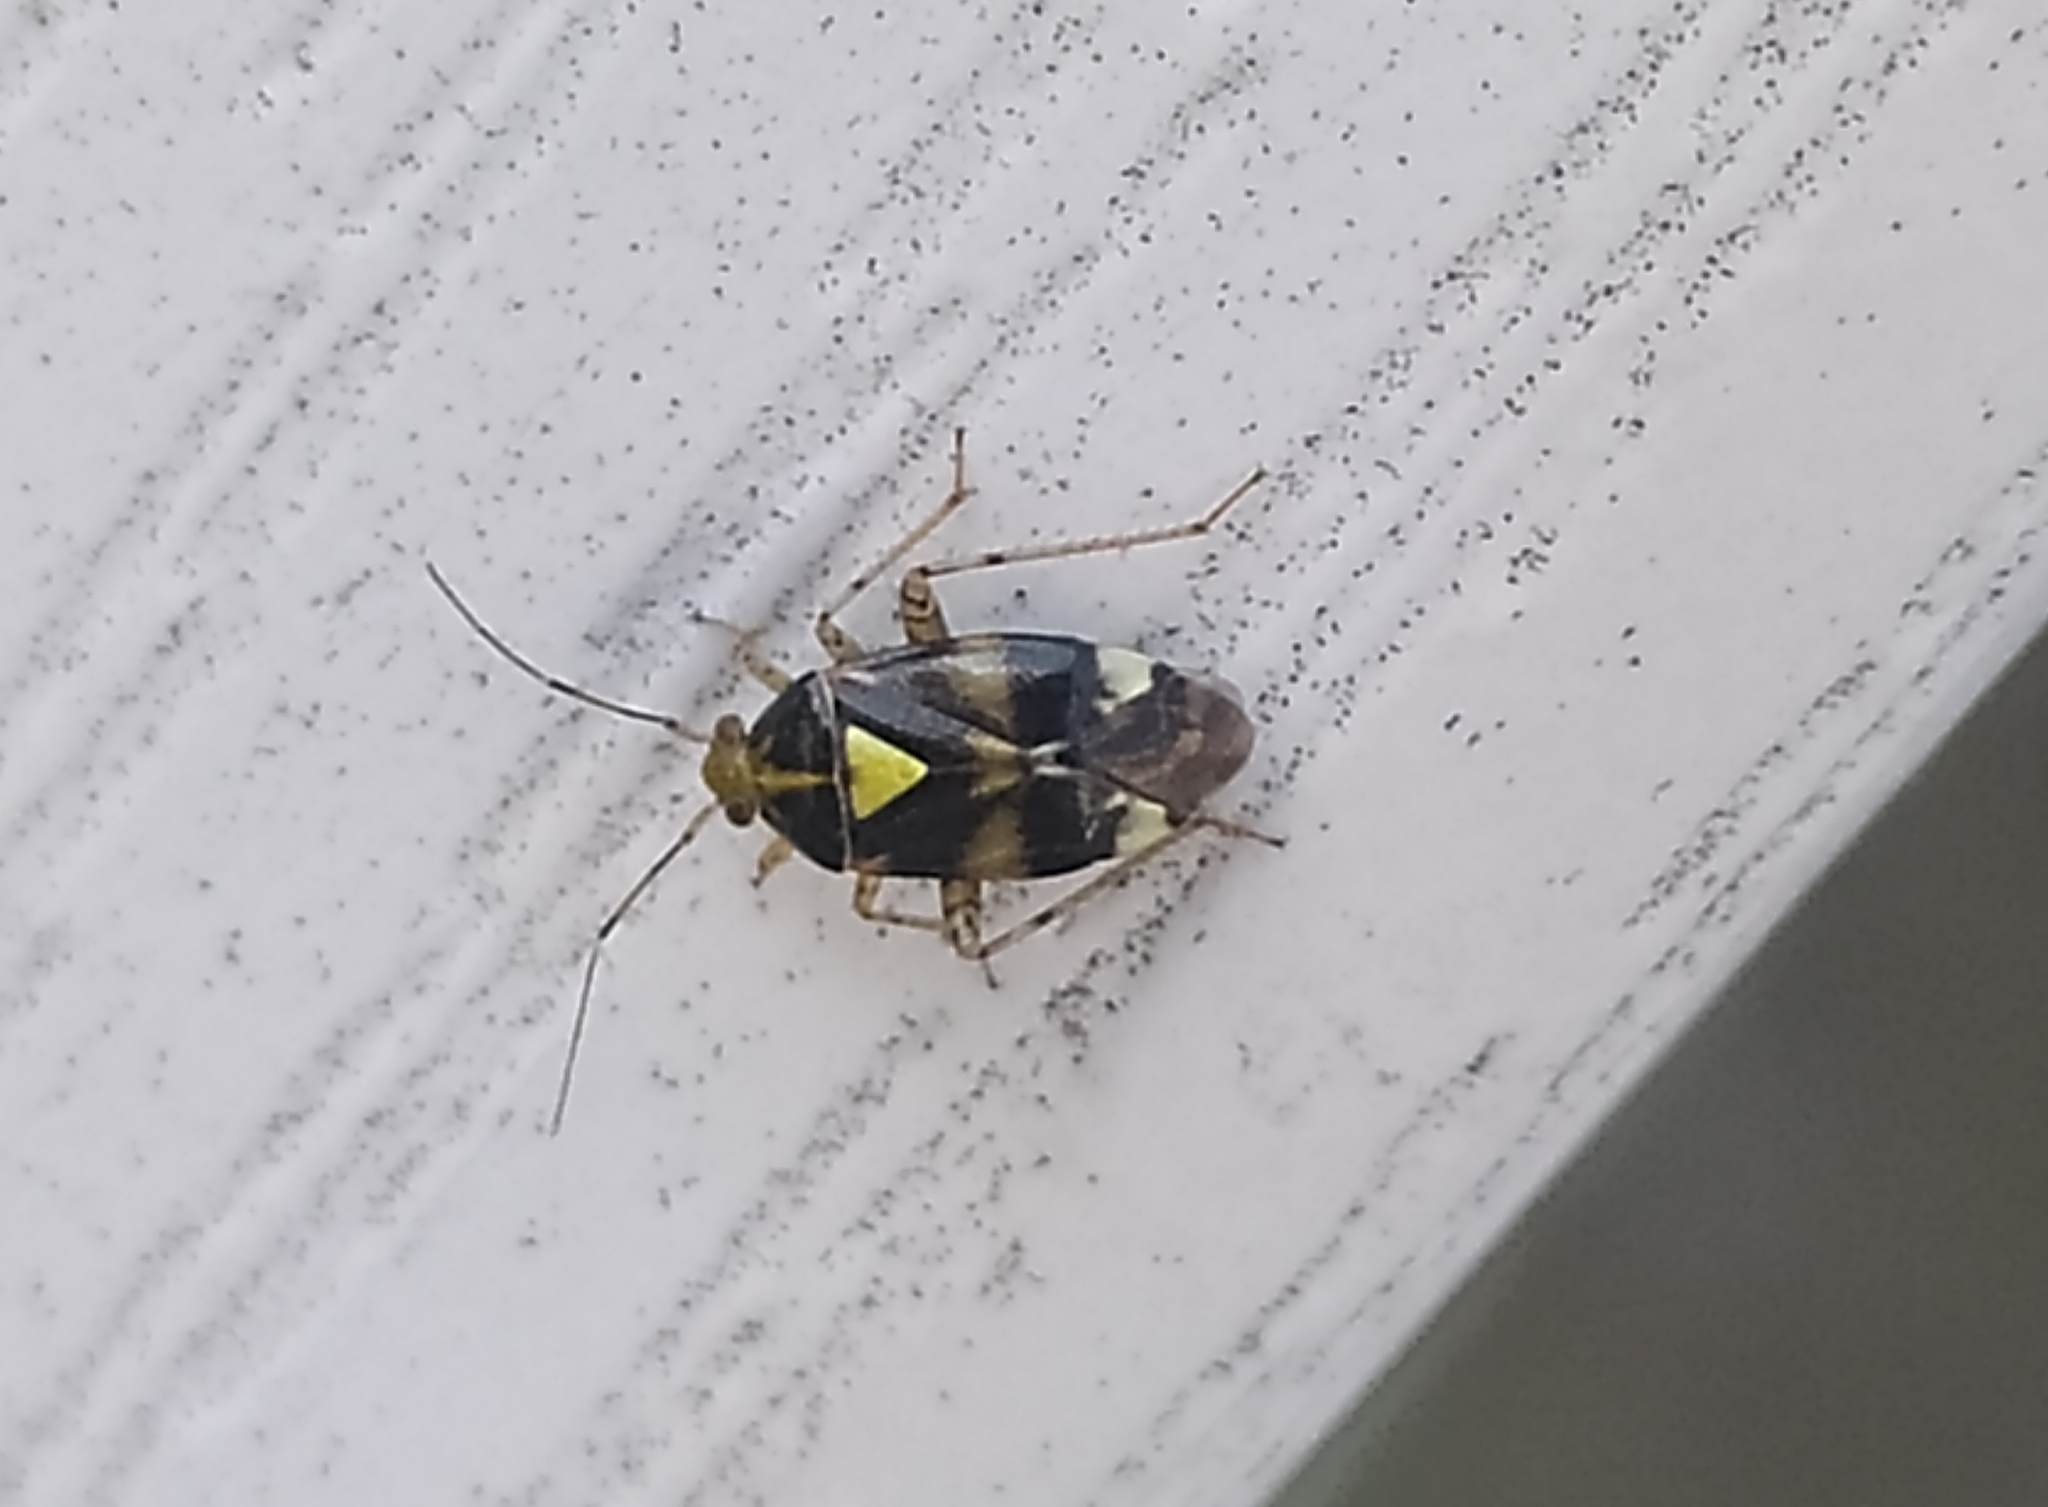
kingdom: Animalia
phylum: Arthropoda
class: Insecta
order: Hemiptera
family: Miridae
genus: Liocoris
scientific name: Liocoris tripustulatus
